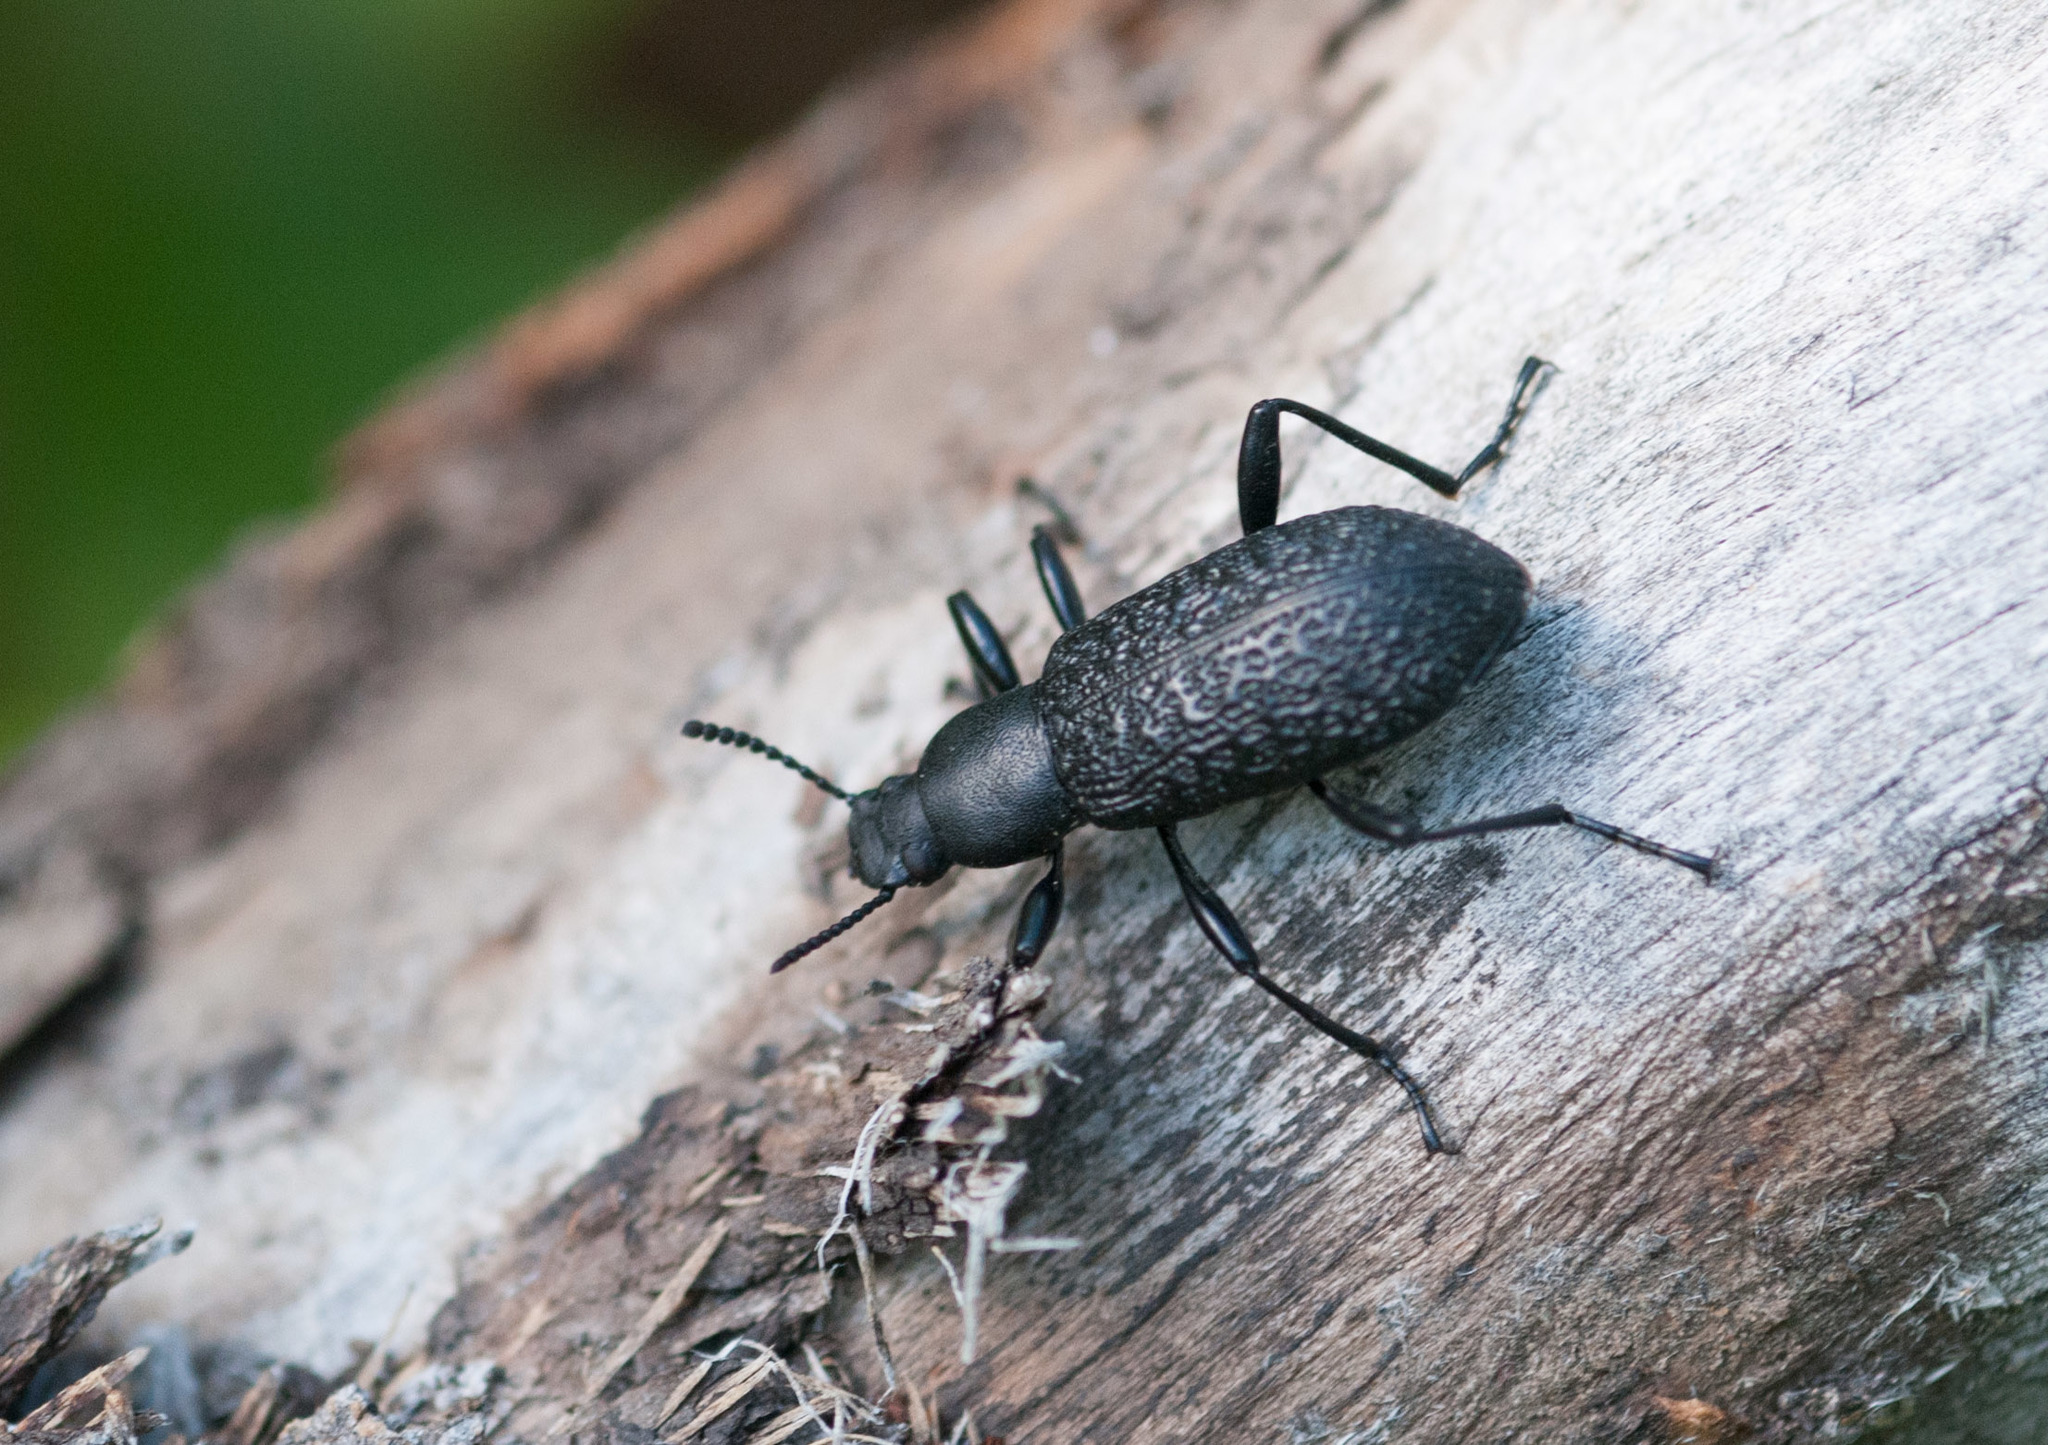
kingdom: Animalia
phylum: Arthropoda
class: Insecta
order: Coleoptera
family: Tenebrionidae
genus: Upis
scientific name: Upis ceramboides
